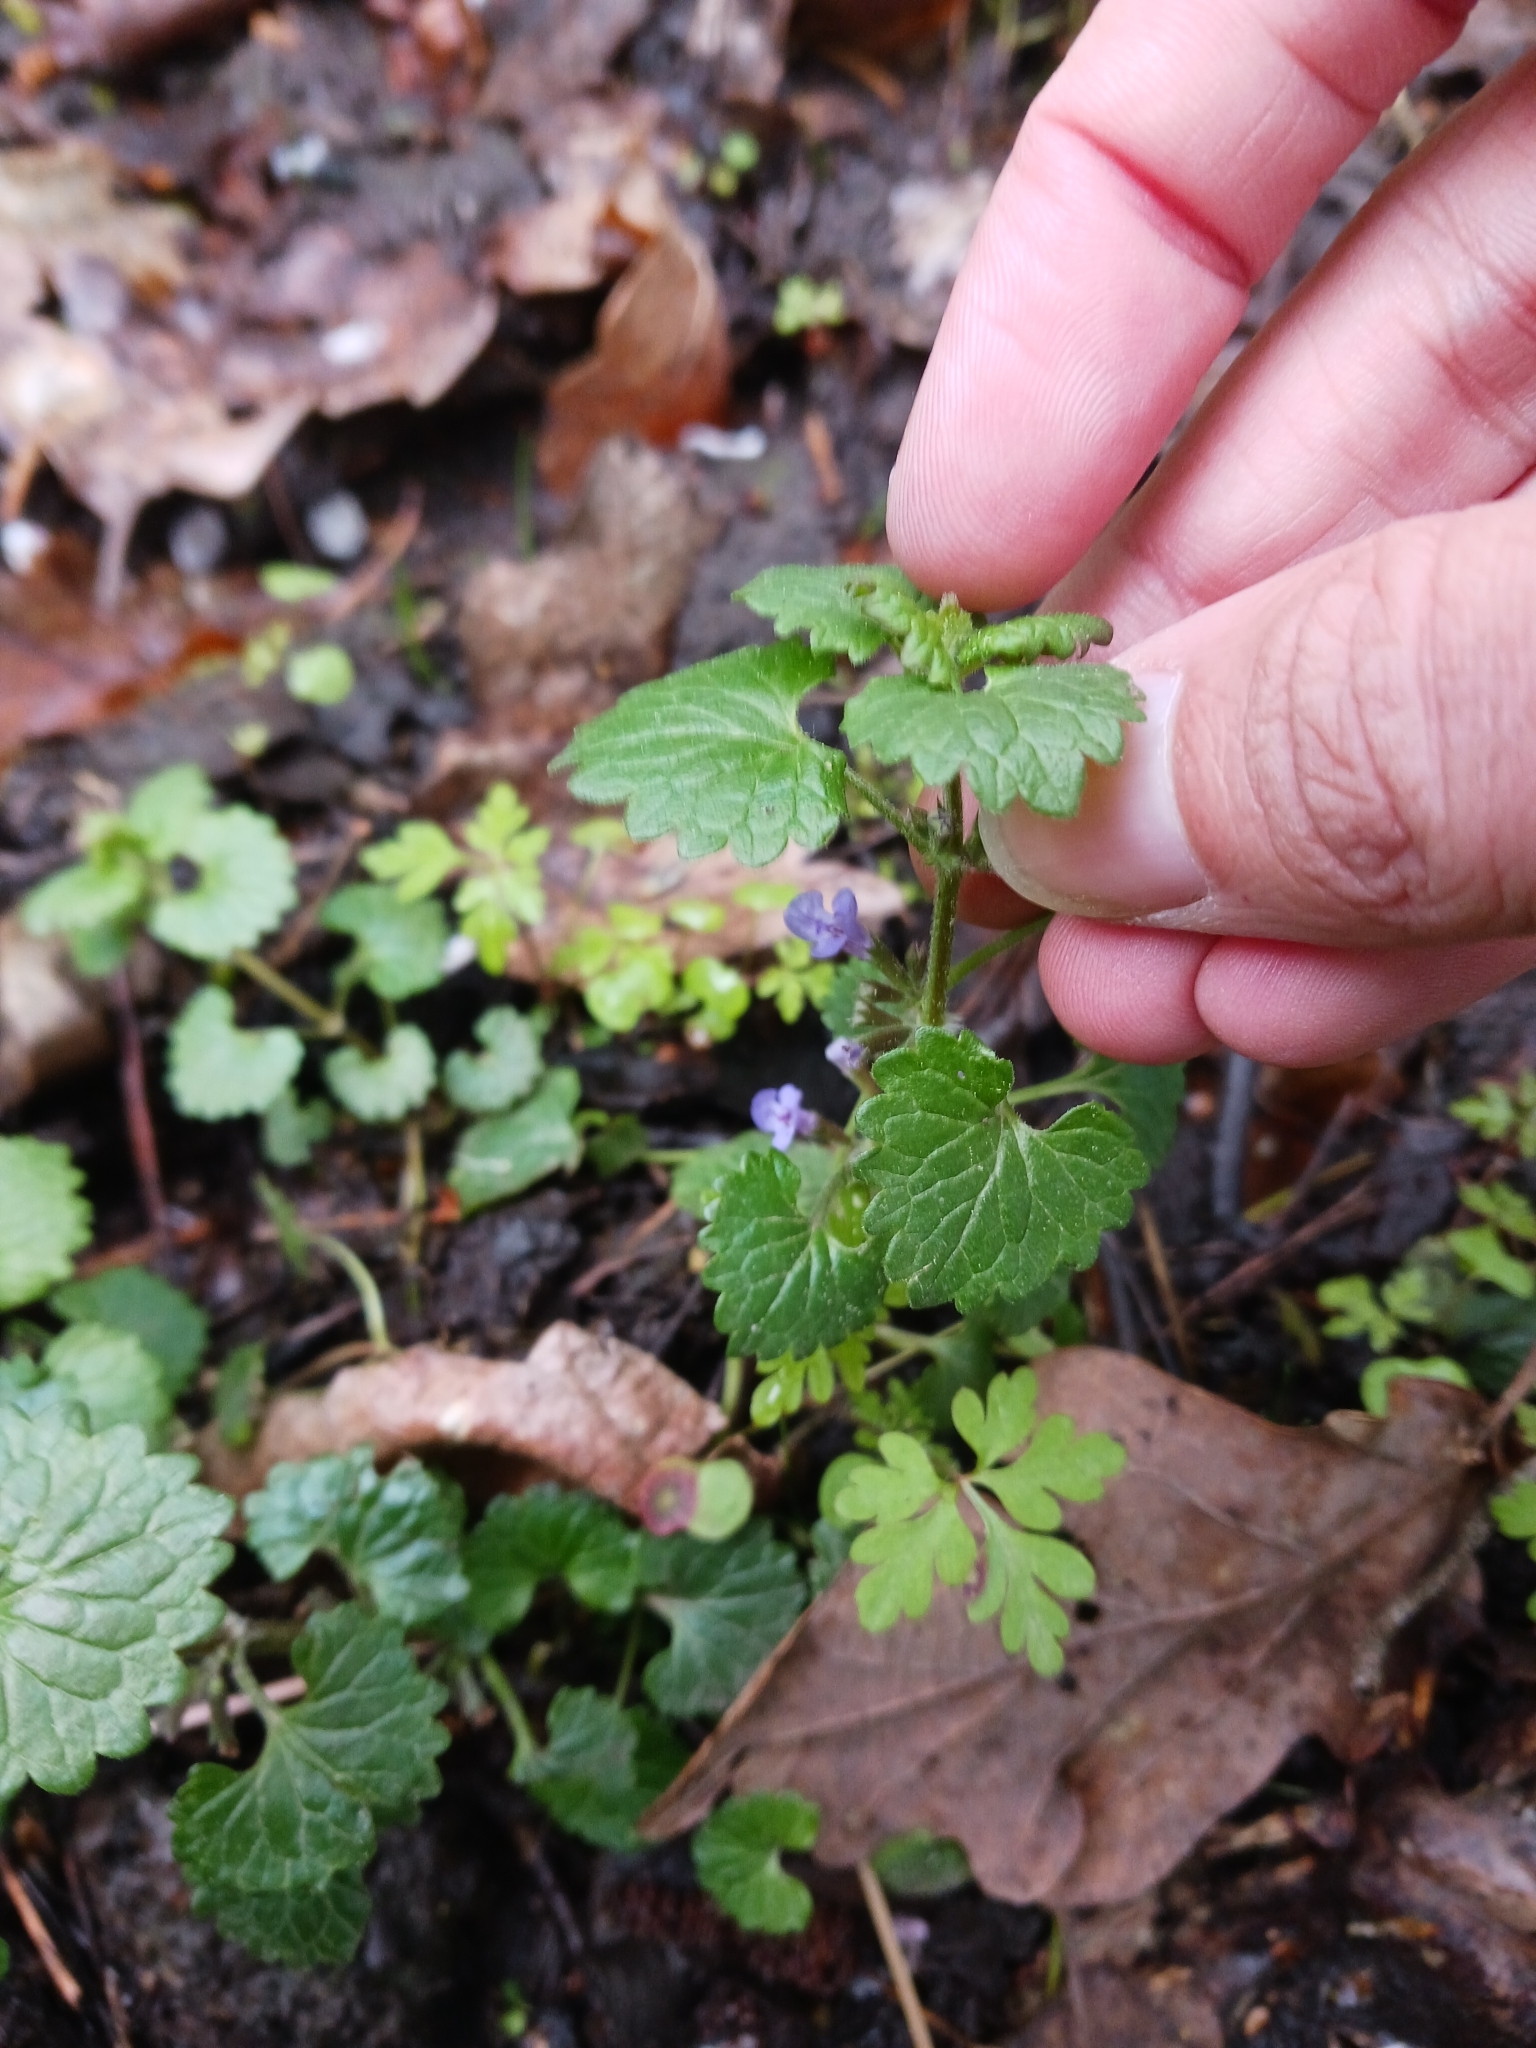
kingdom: Plantae
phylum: Tracheophyta
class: Magnoliopsida
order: Lamiales
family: Lamiaceae
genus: Glechoma
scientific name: Glechoma hederacea
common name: Ground ivy
